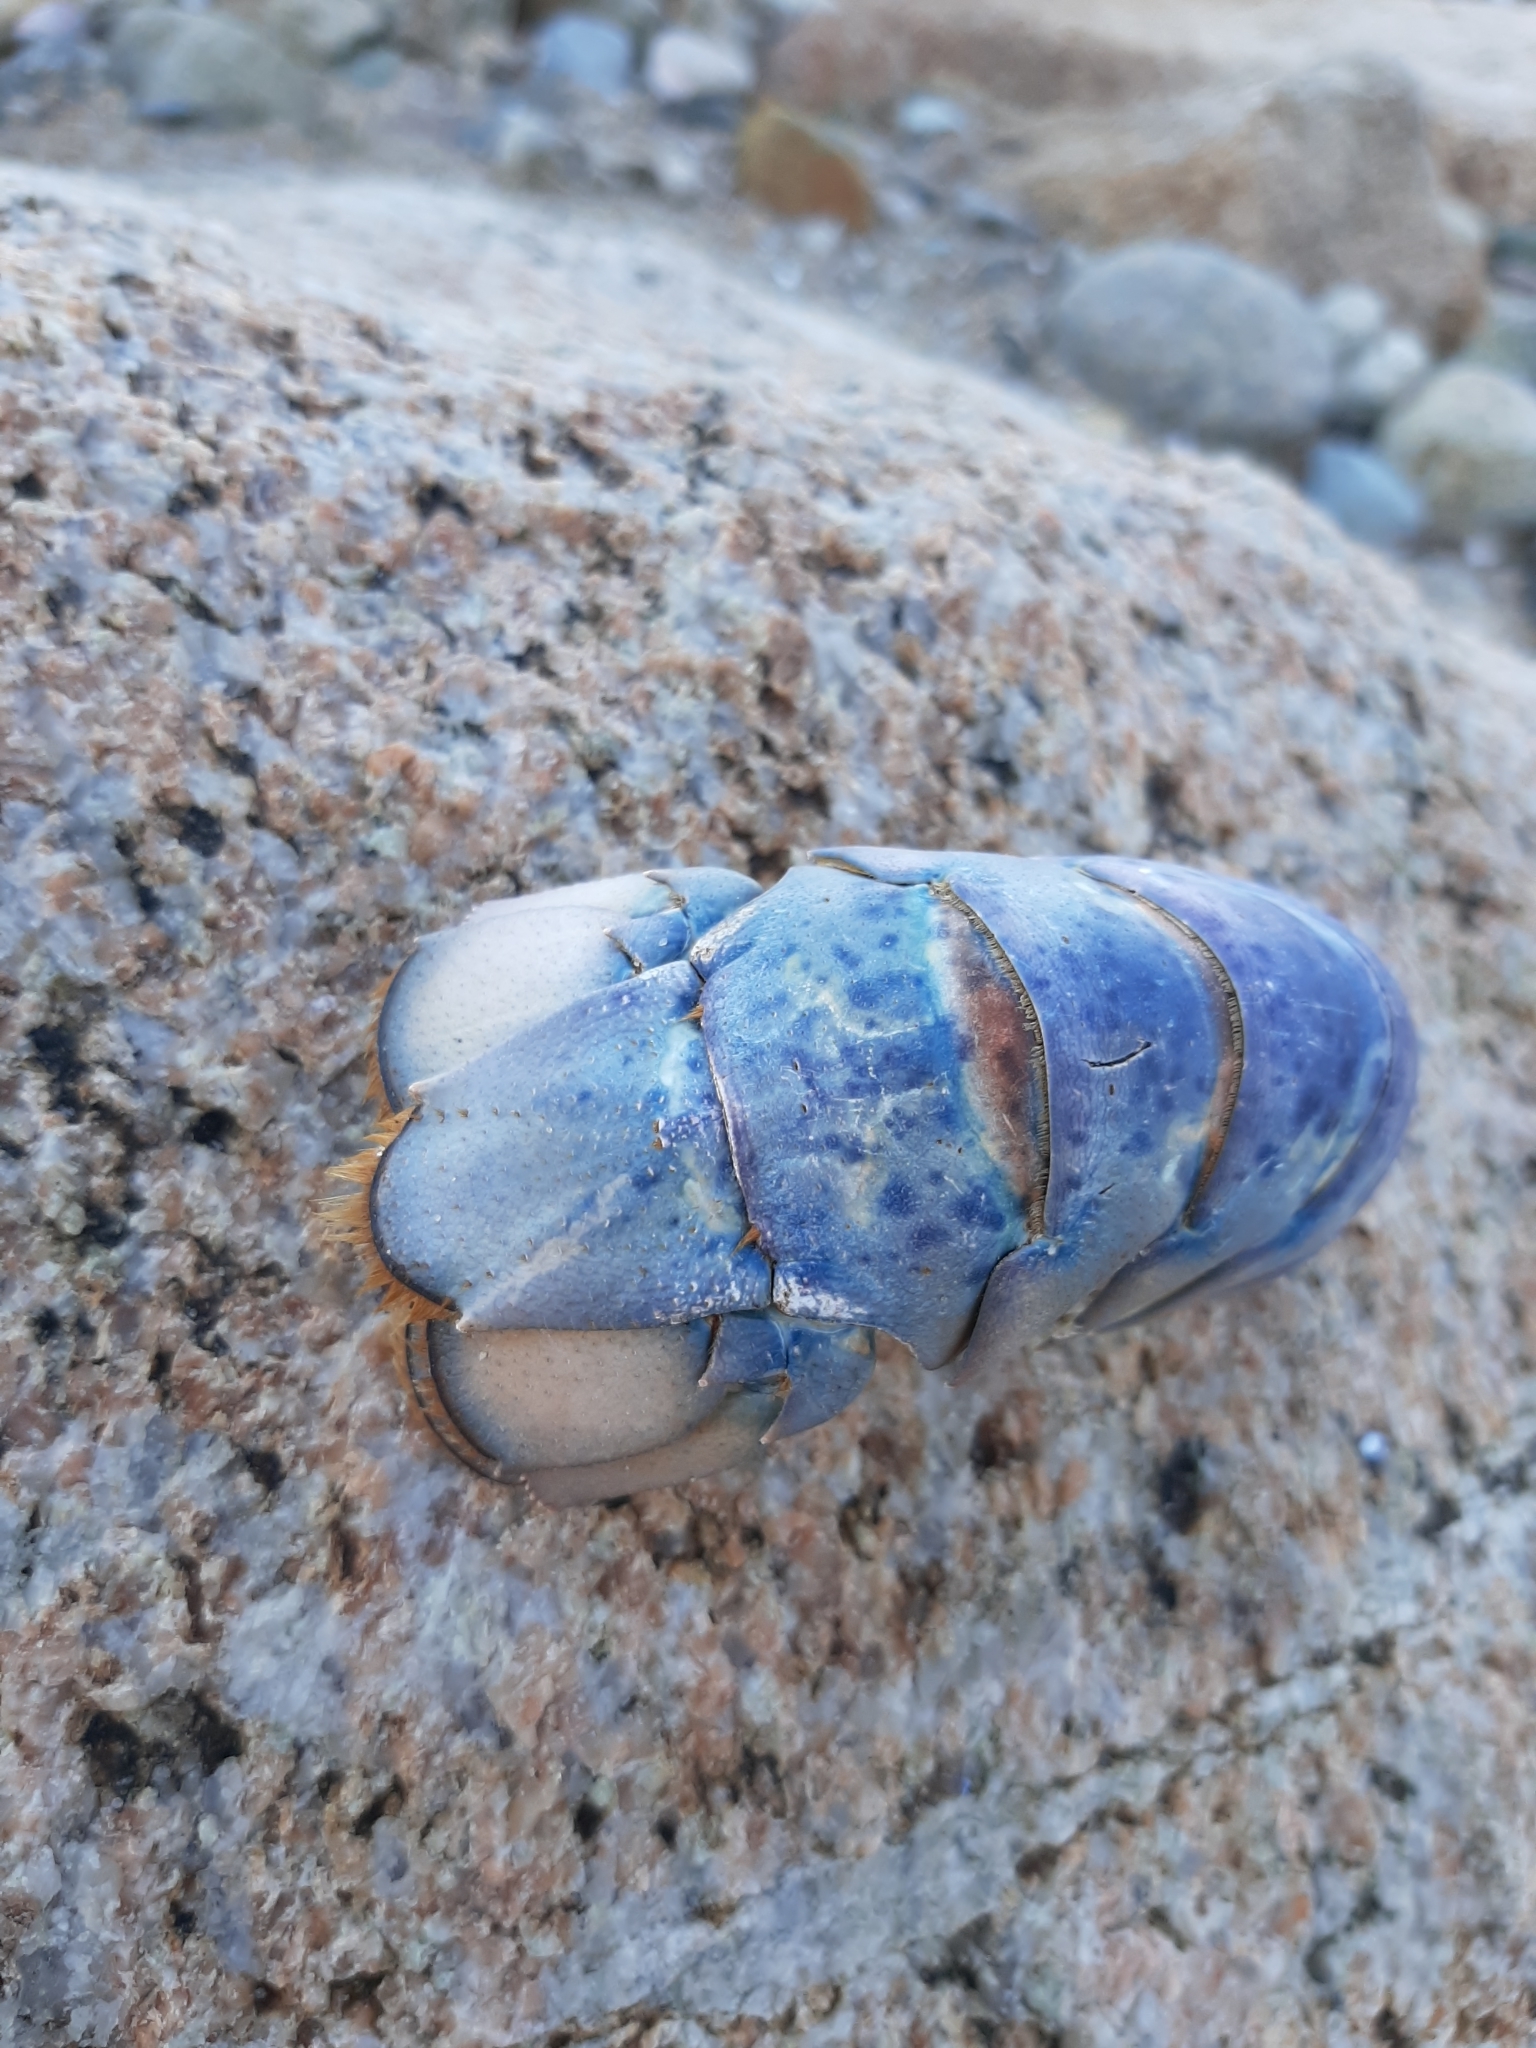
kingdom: Animalia
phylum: Arthropoda
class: Malacostraca
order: Decapoda
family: Nephropidae
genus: Homarus
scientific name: Homarus americanus
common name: American lobster
